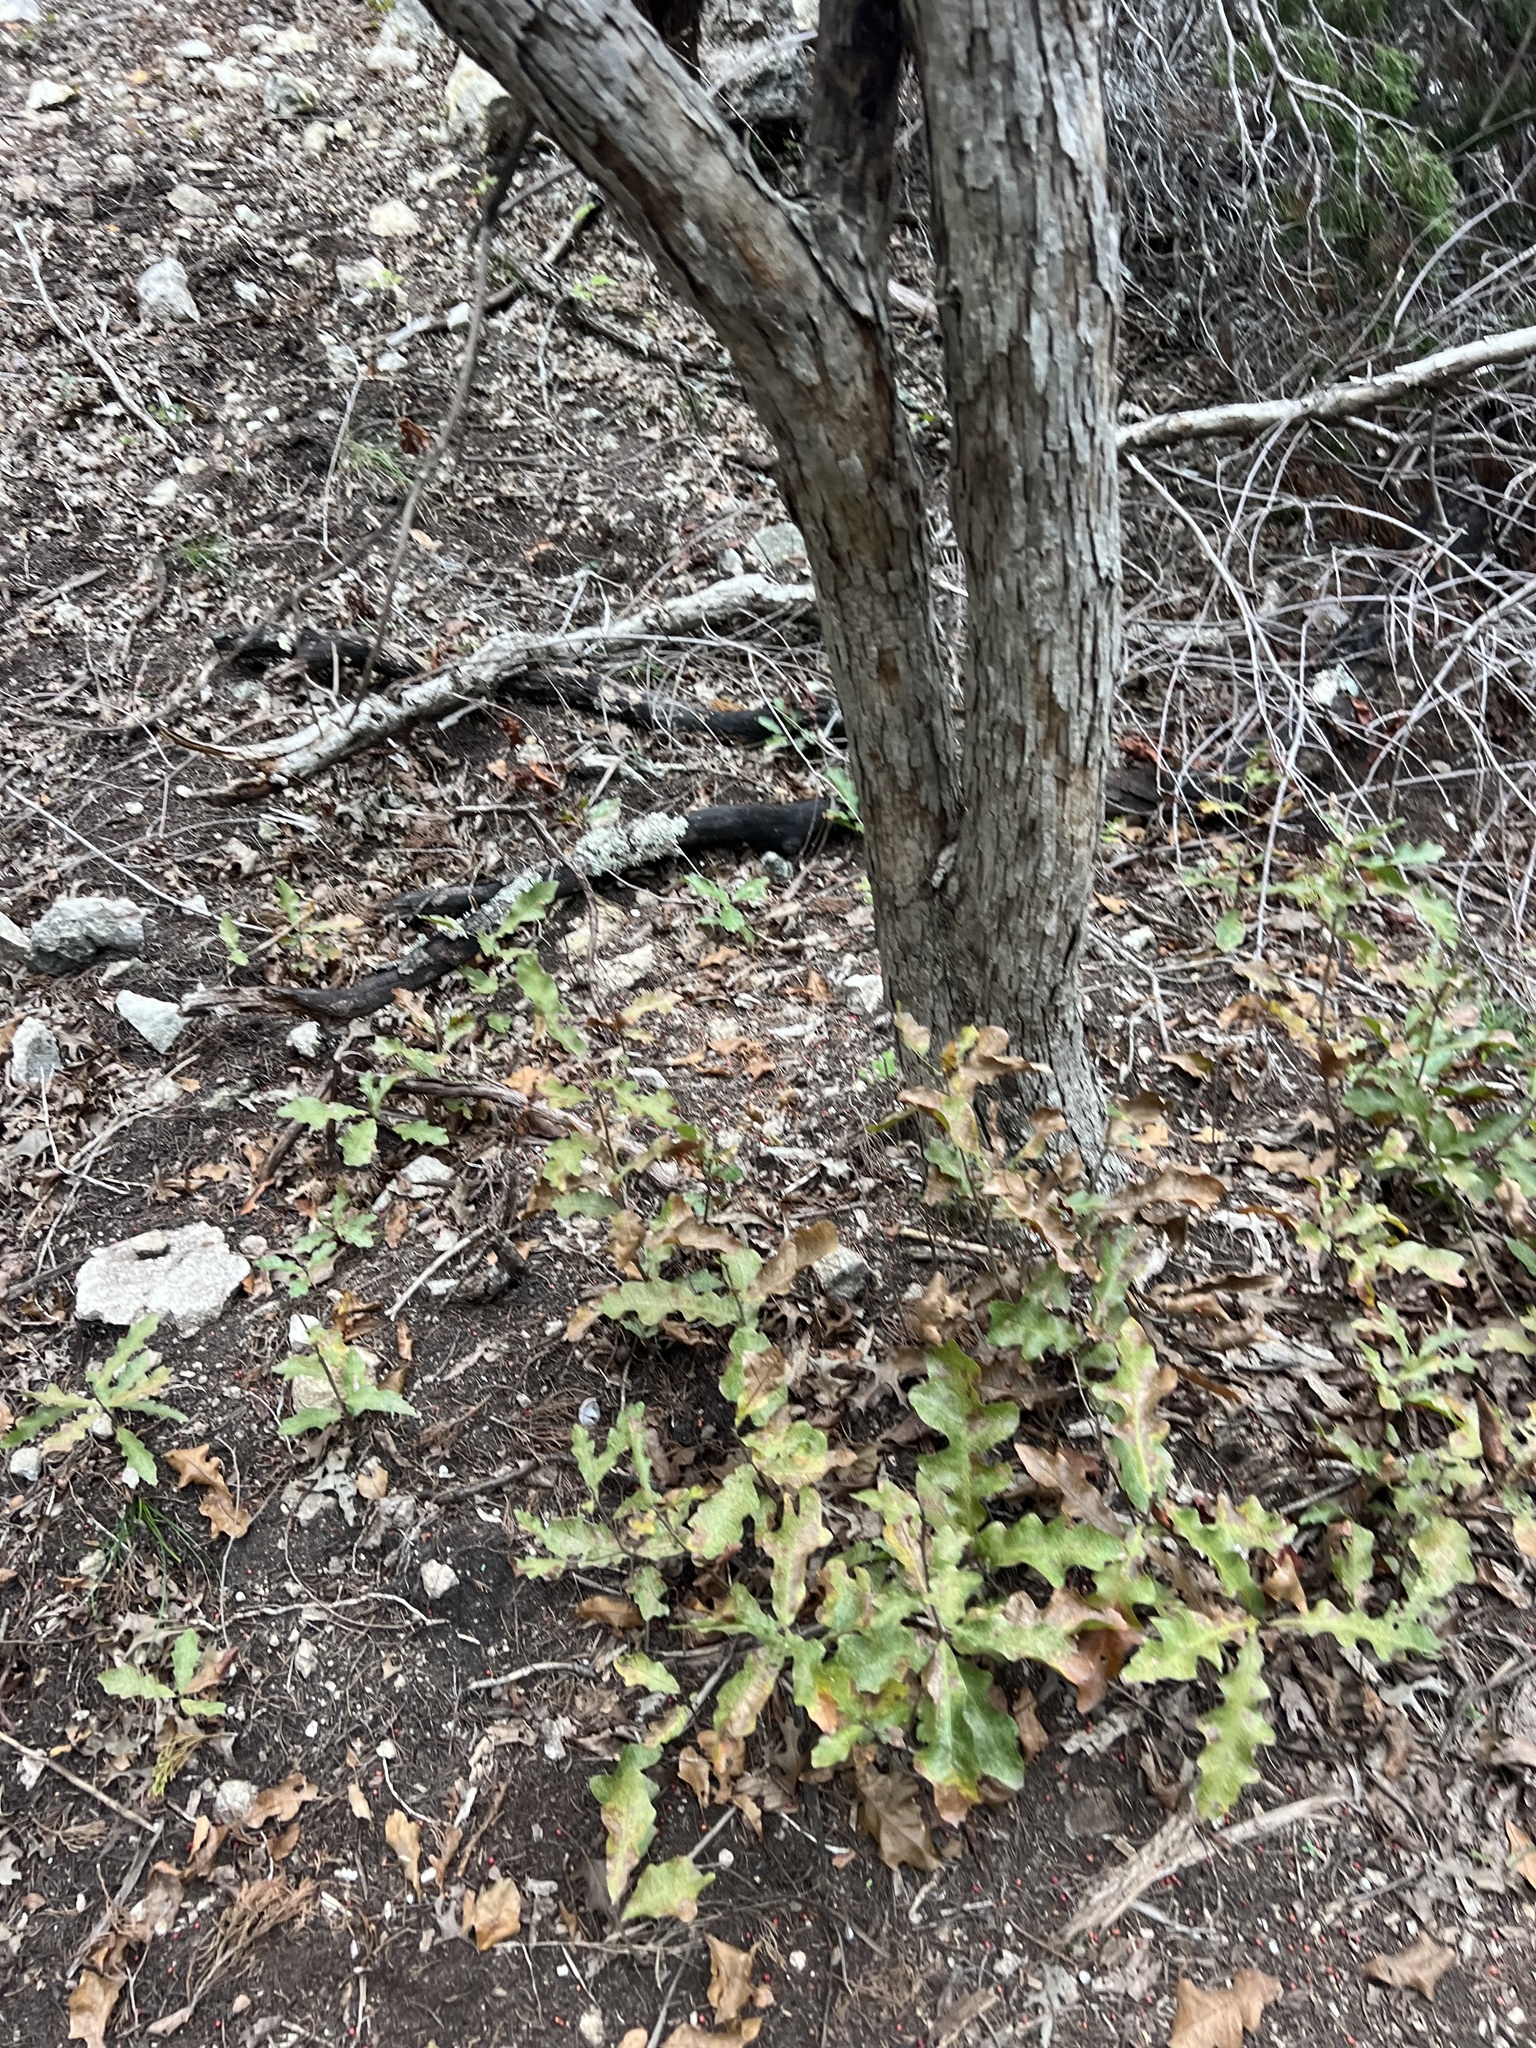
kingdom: Plantae
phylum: Tracheophyta
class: Magnoliopsida
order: Fagales
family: Fagaceae
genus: Quercus
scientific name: Quercus sinuata
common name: Durand oak
